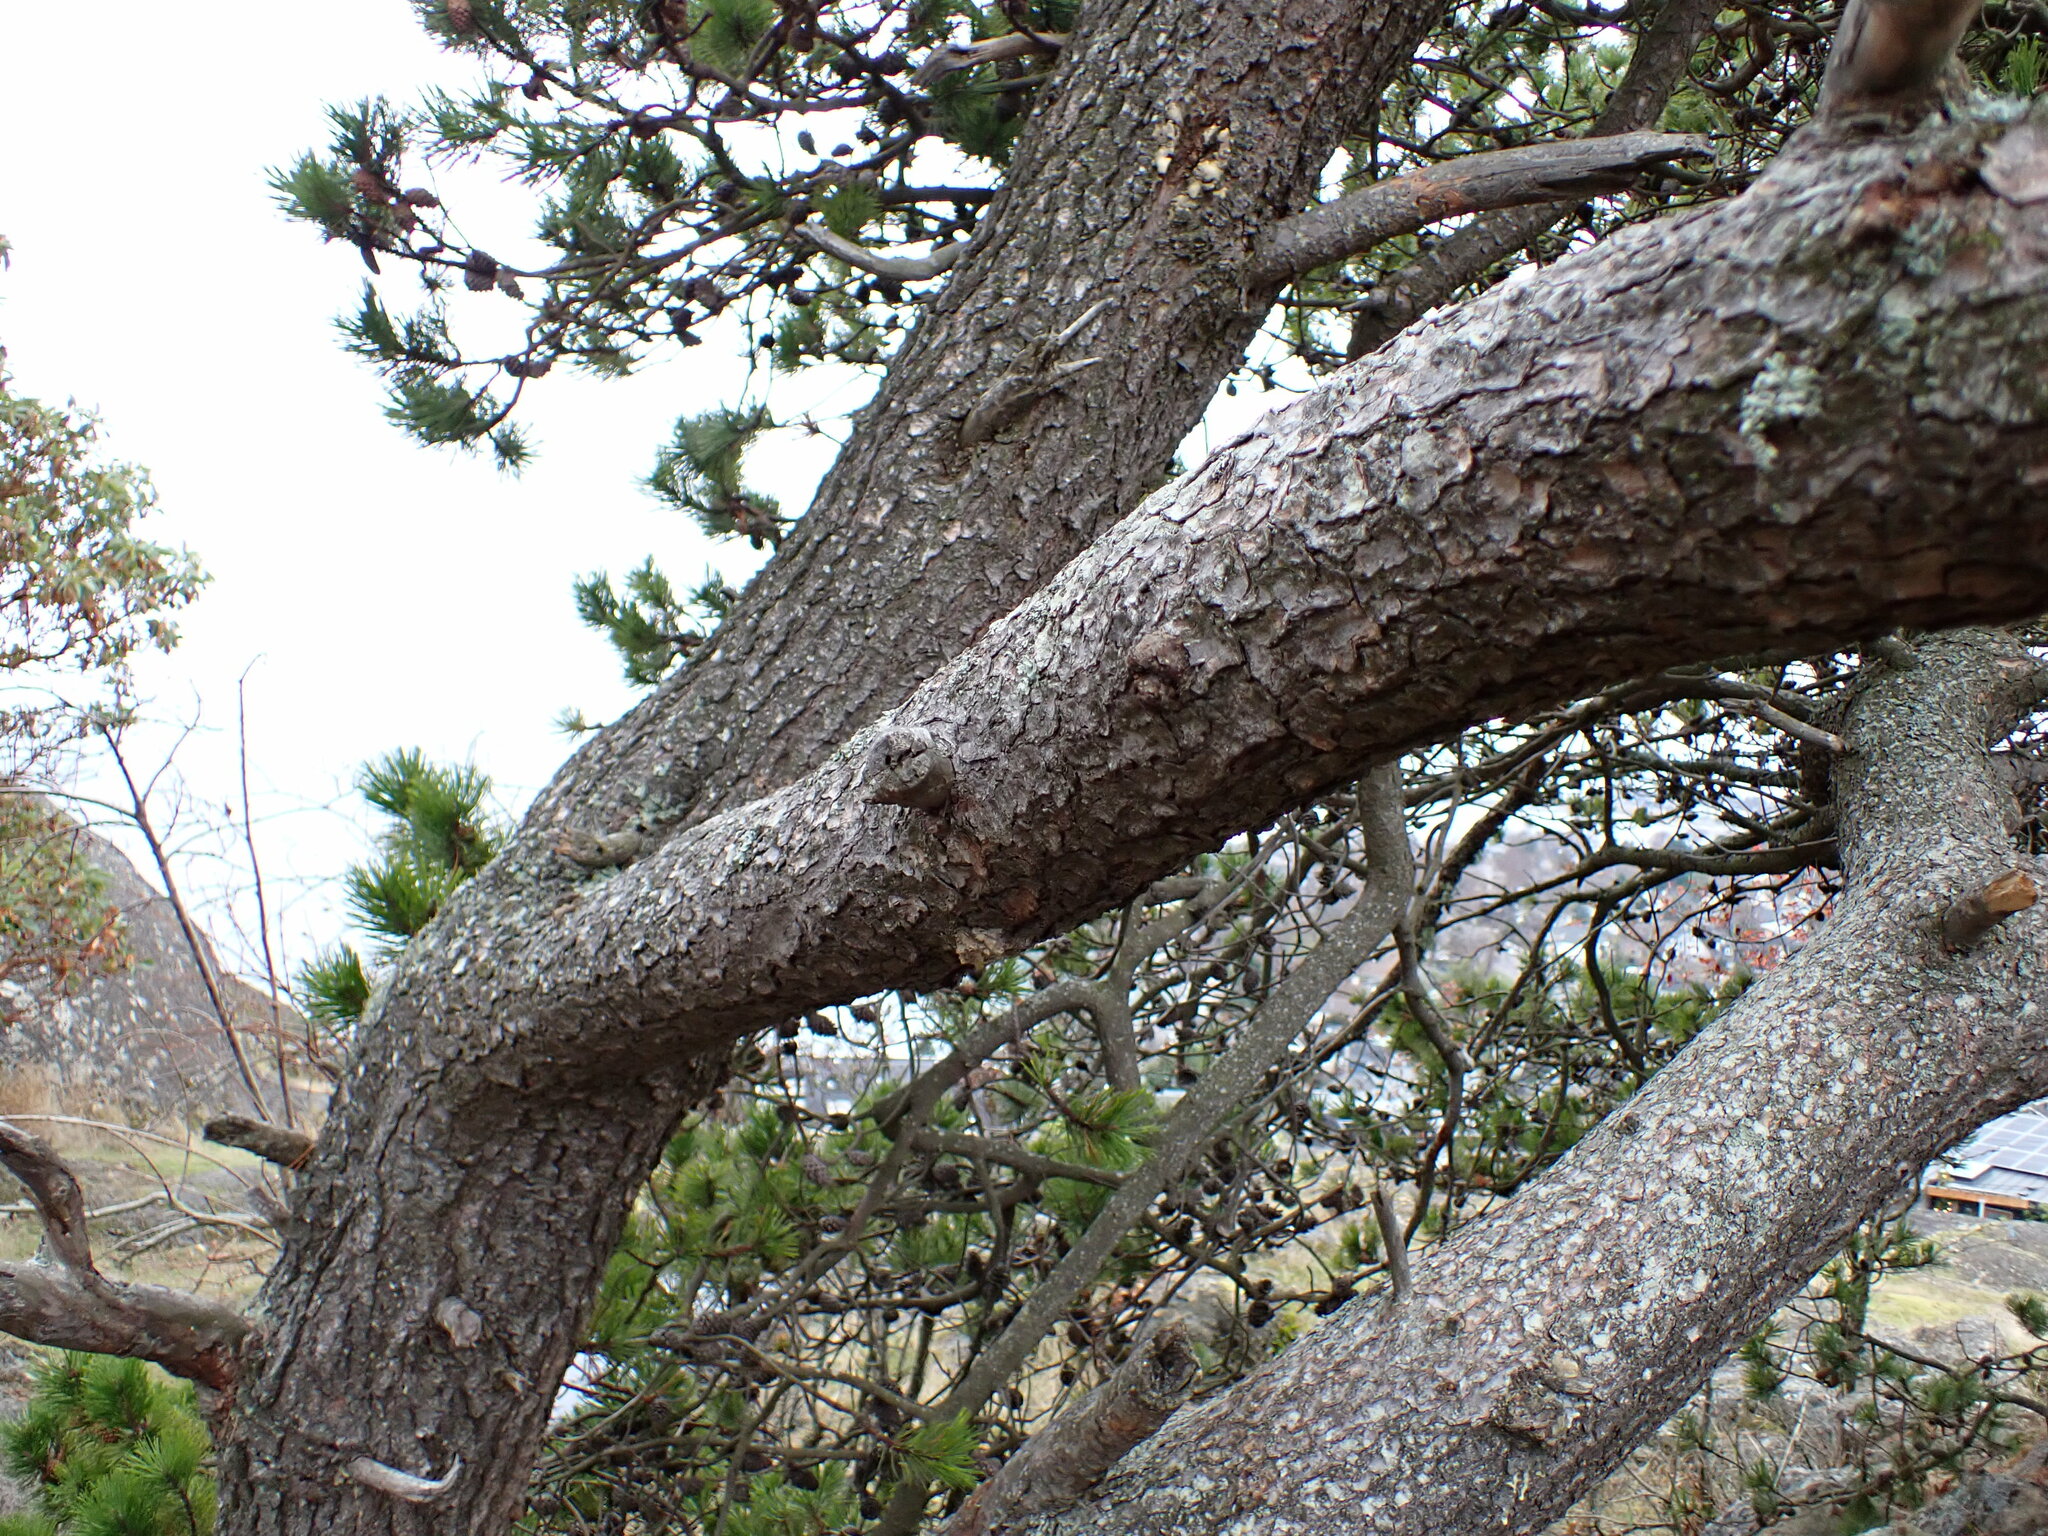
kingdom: Plantae
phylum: Tracheophyta
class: Pinopsida
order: Pinales
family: Pinaceae
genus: Pinus
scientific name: Pinus contorta
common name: Lodgepole pine
